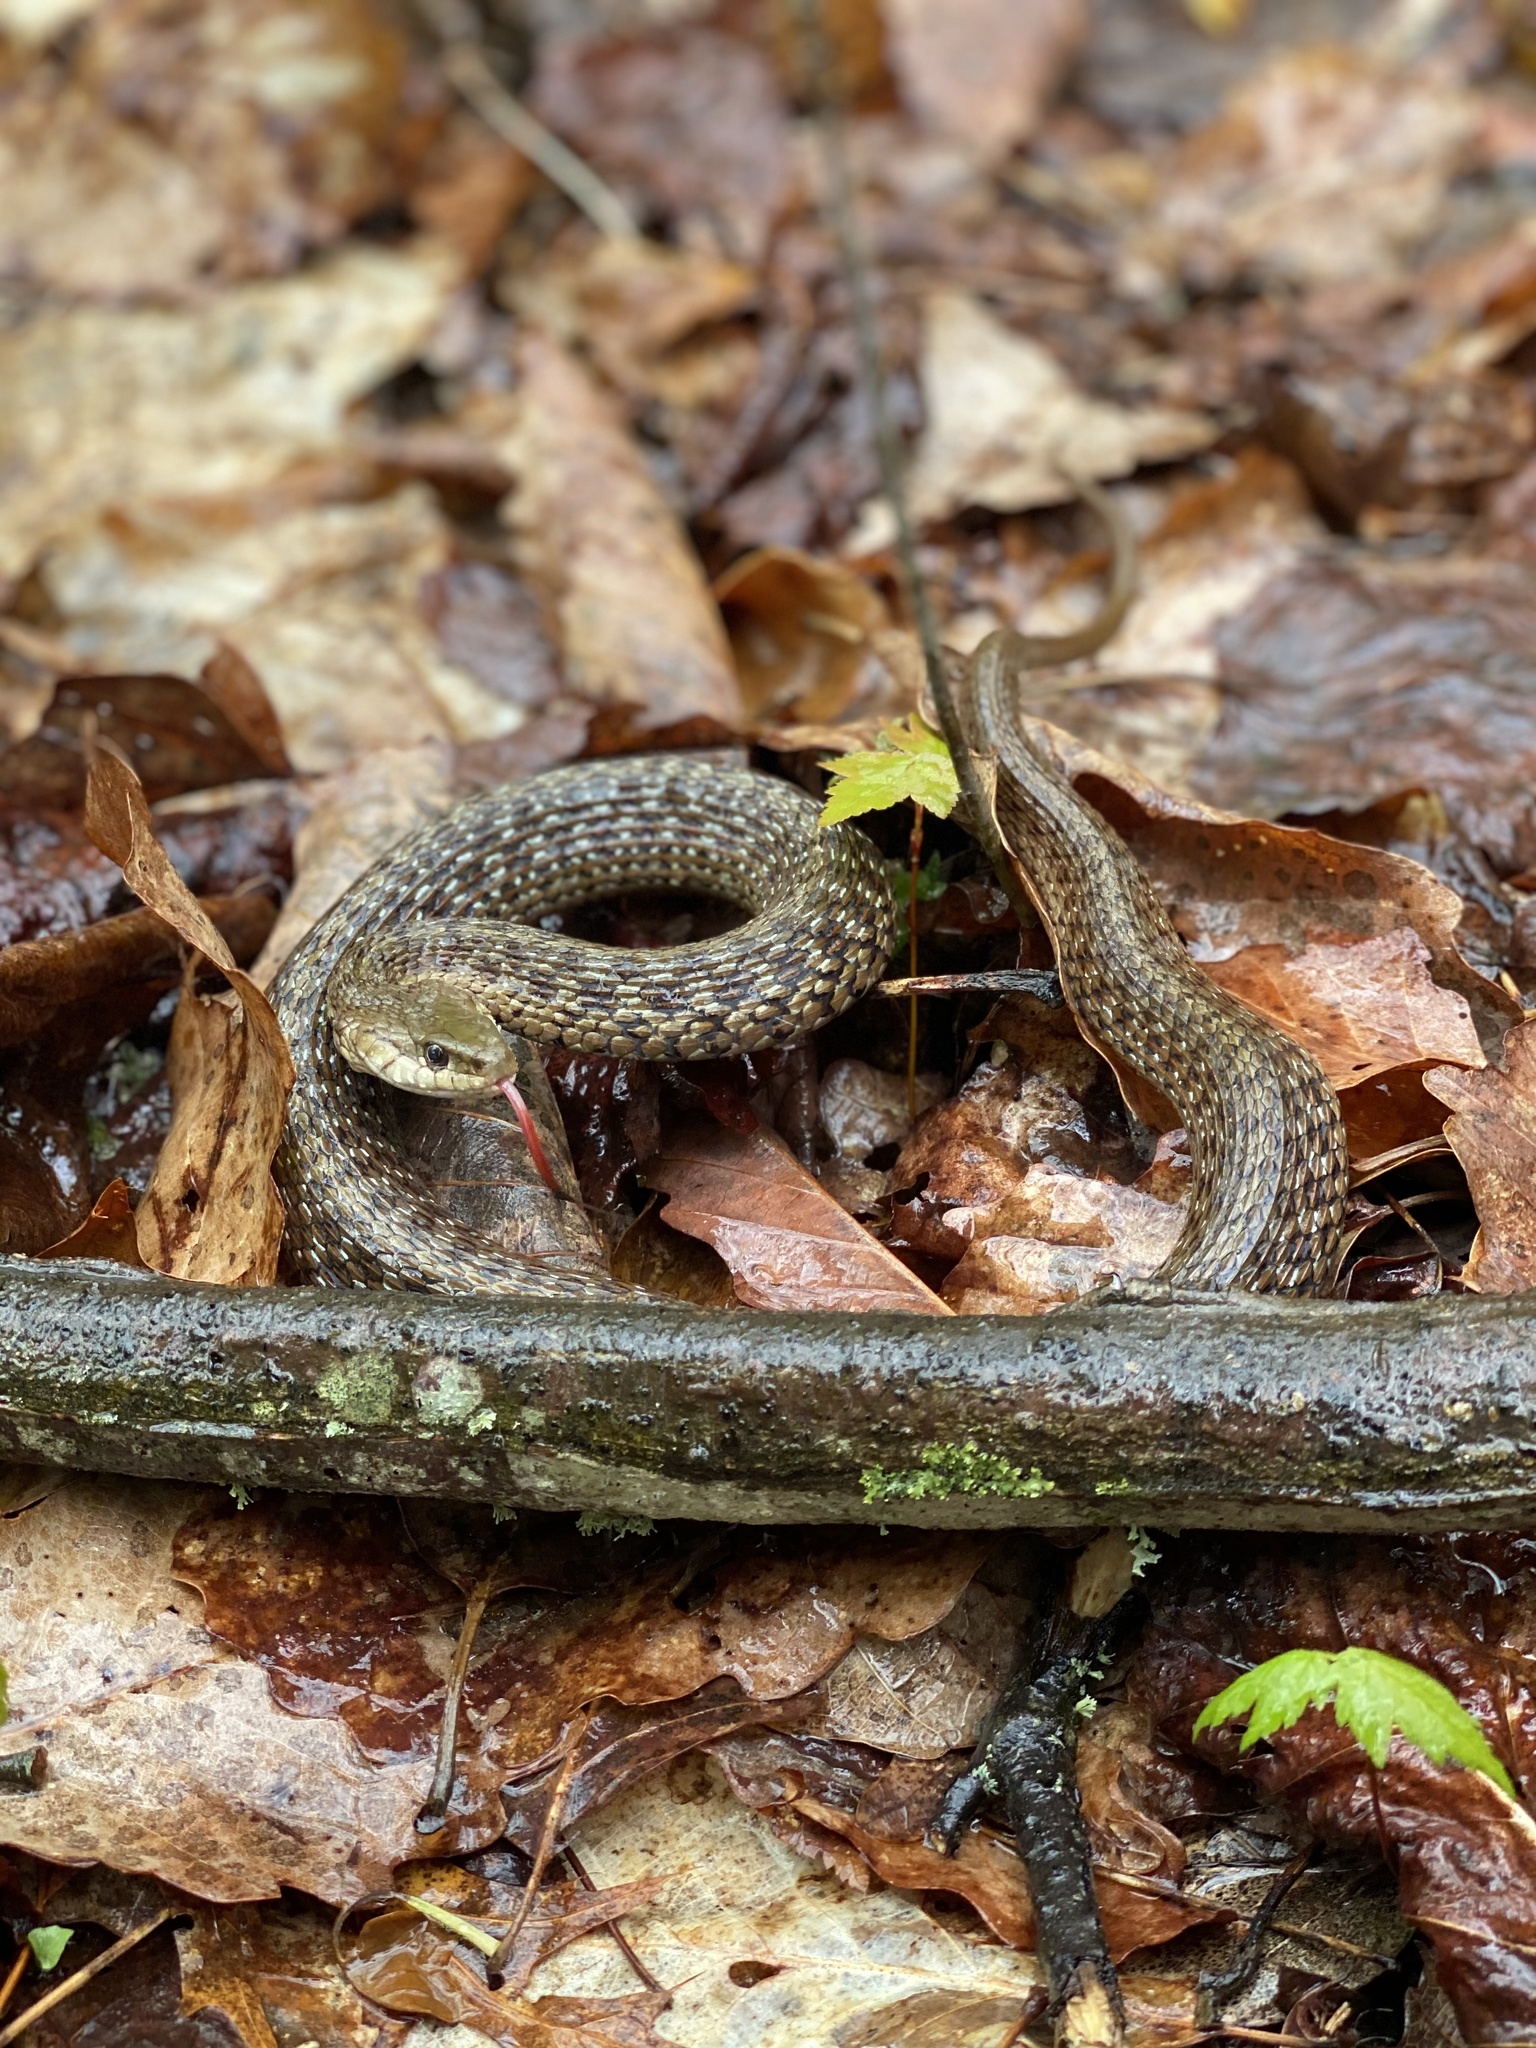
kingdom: Animalia
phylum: Chordata
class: Squamata
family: Colubridae
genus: Thamnophis
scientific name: Thamnophis sirtalis
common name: Common garter snake
